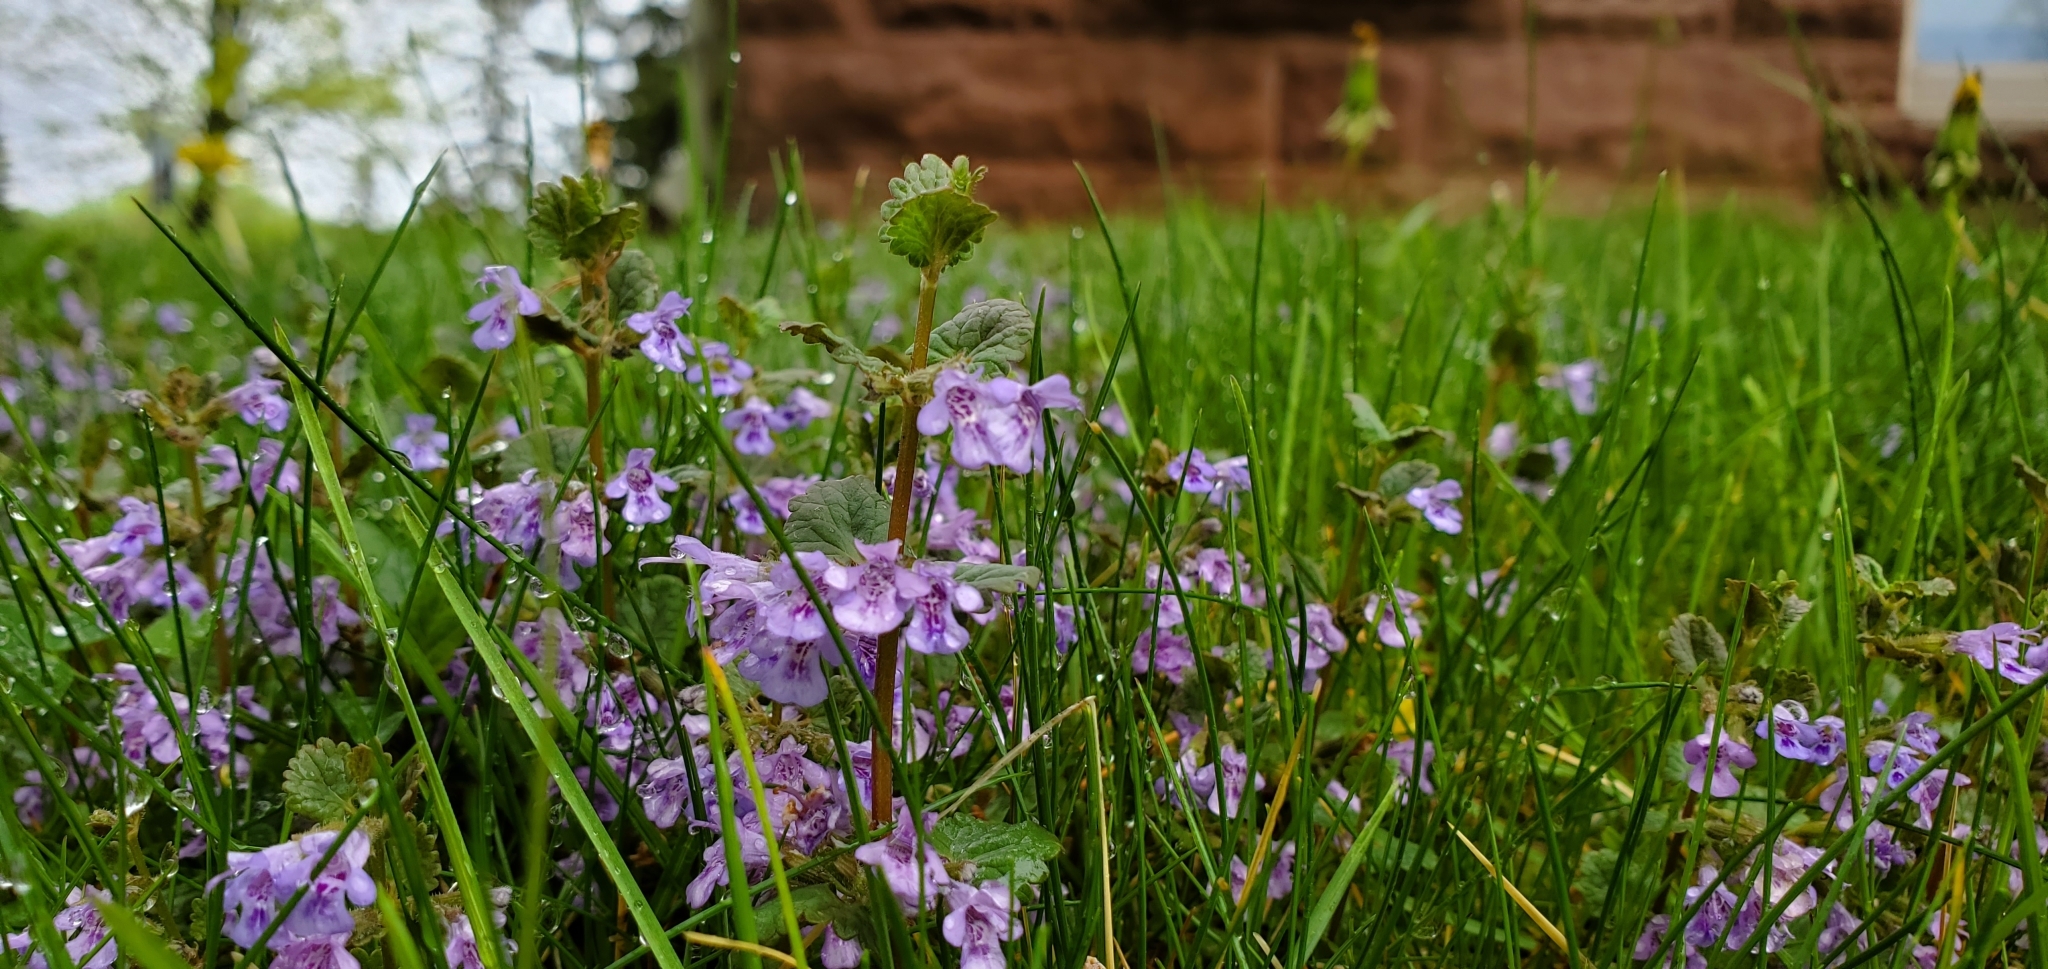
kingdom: Plantae
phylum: Tracheophyta
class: Magnoliopsida
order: Lamiales
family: Lamiaceae
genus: Glechoma
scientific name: Glechoma hederacea
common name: Ground ivy
